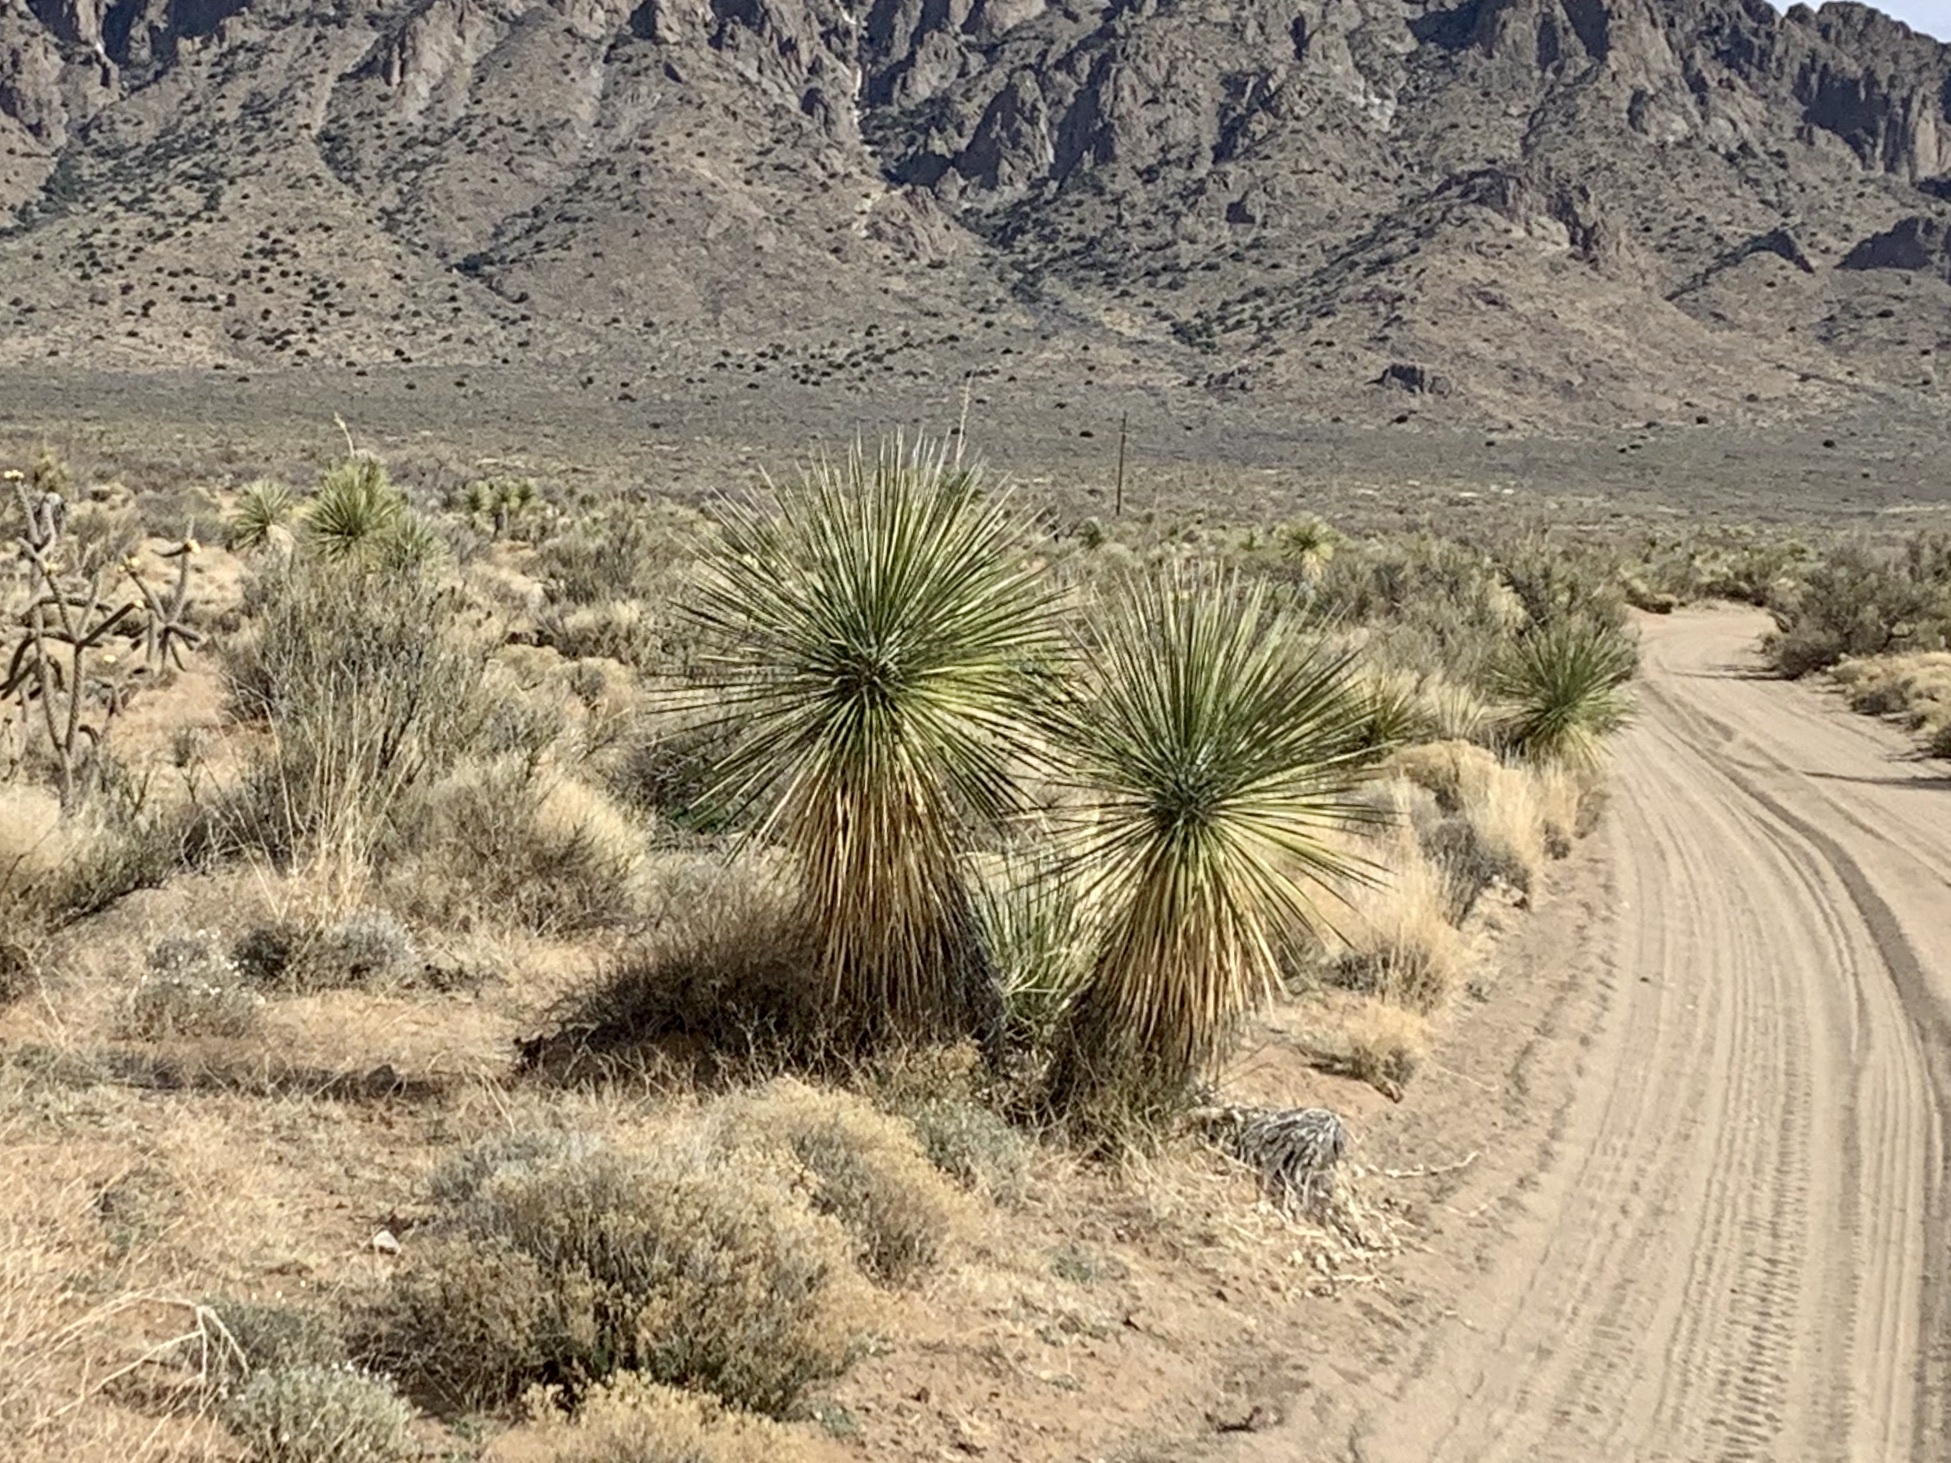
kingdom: Plantae
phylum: Tracheophyta
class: Liliopsida
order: Asparagales
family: Asparagaceae
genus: Yucca
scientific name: Yucca elata
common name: Palmella
